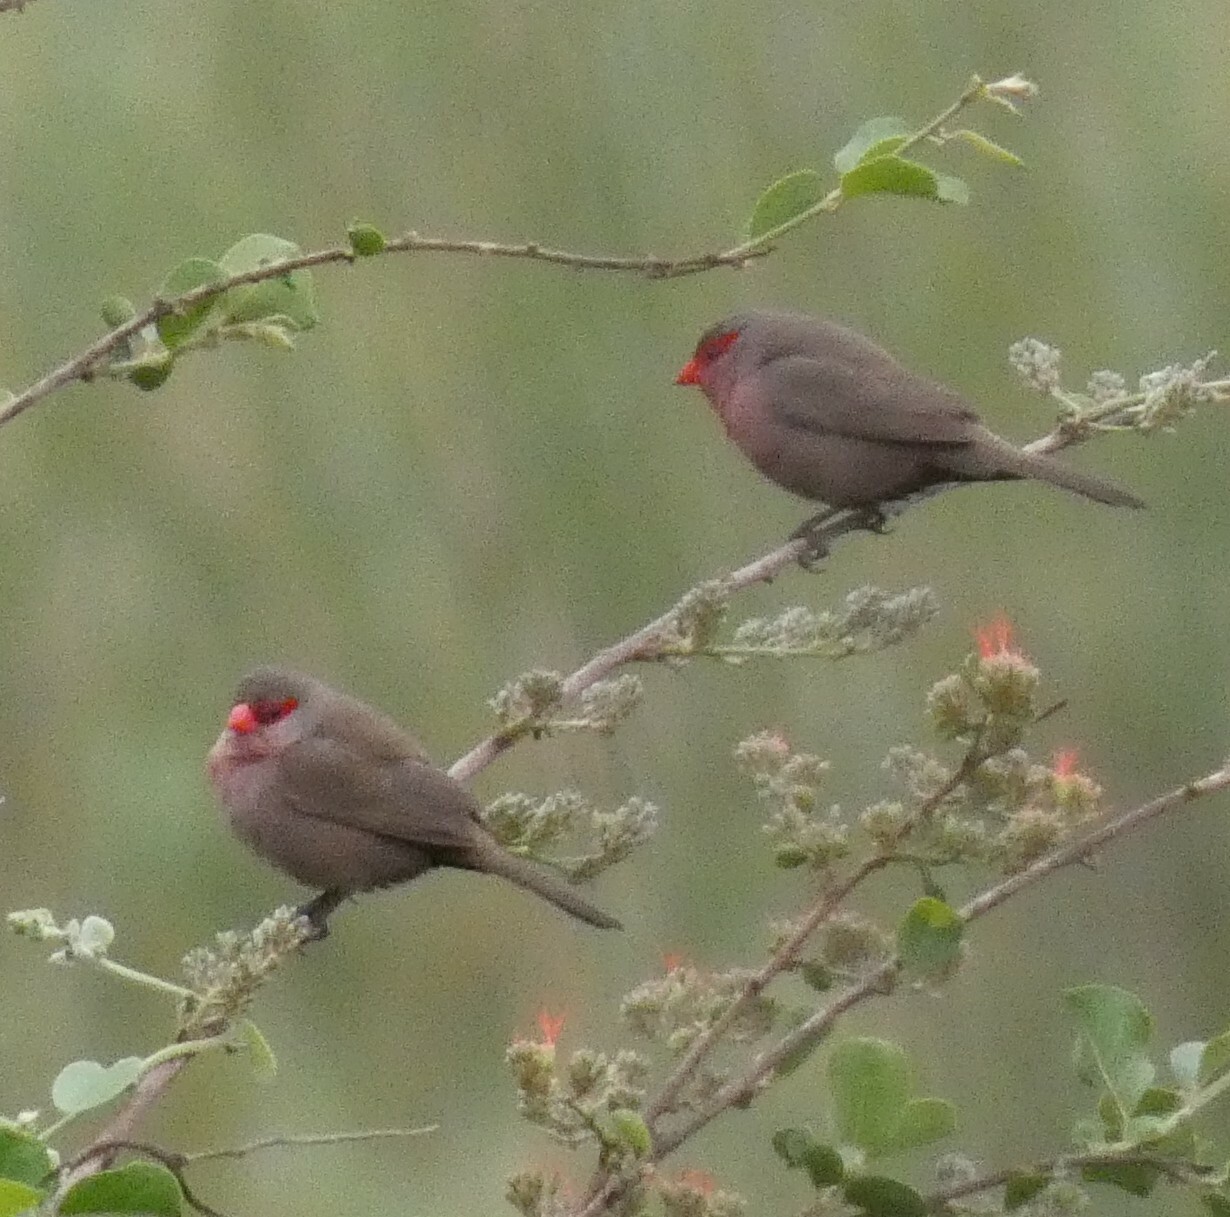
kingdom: Animalia
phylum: Chordata
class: Aves
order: Passeriformes
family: Estrildidae
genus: Estrilda
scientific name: Estrilda astrild
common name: Common waxbill
